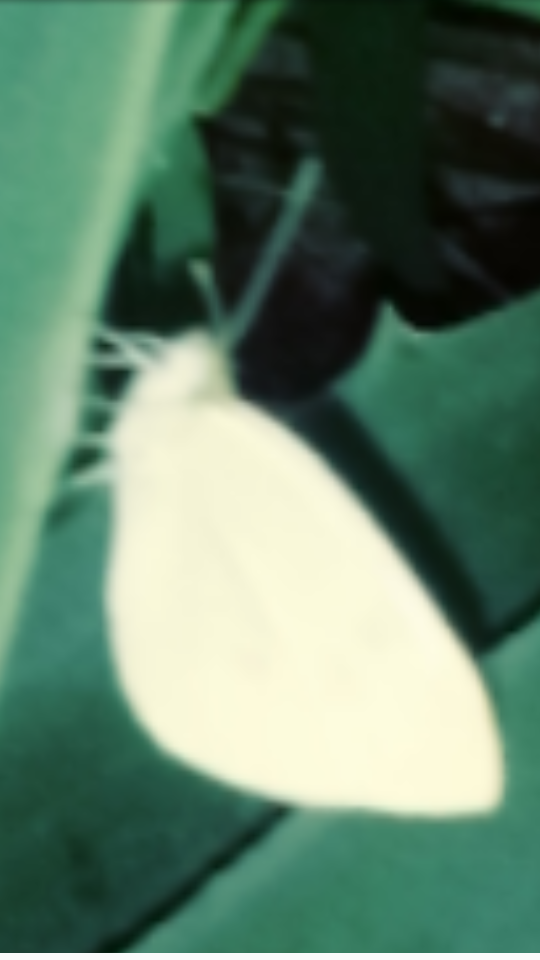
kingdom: Animalia
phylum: Arthropoda
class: Insecta
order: Lepidoptera
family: Pieridae
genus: Pieris
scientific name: Pieris rapae
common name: Small white
